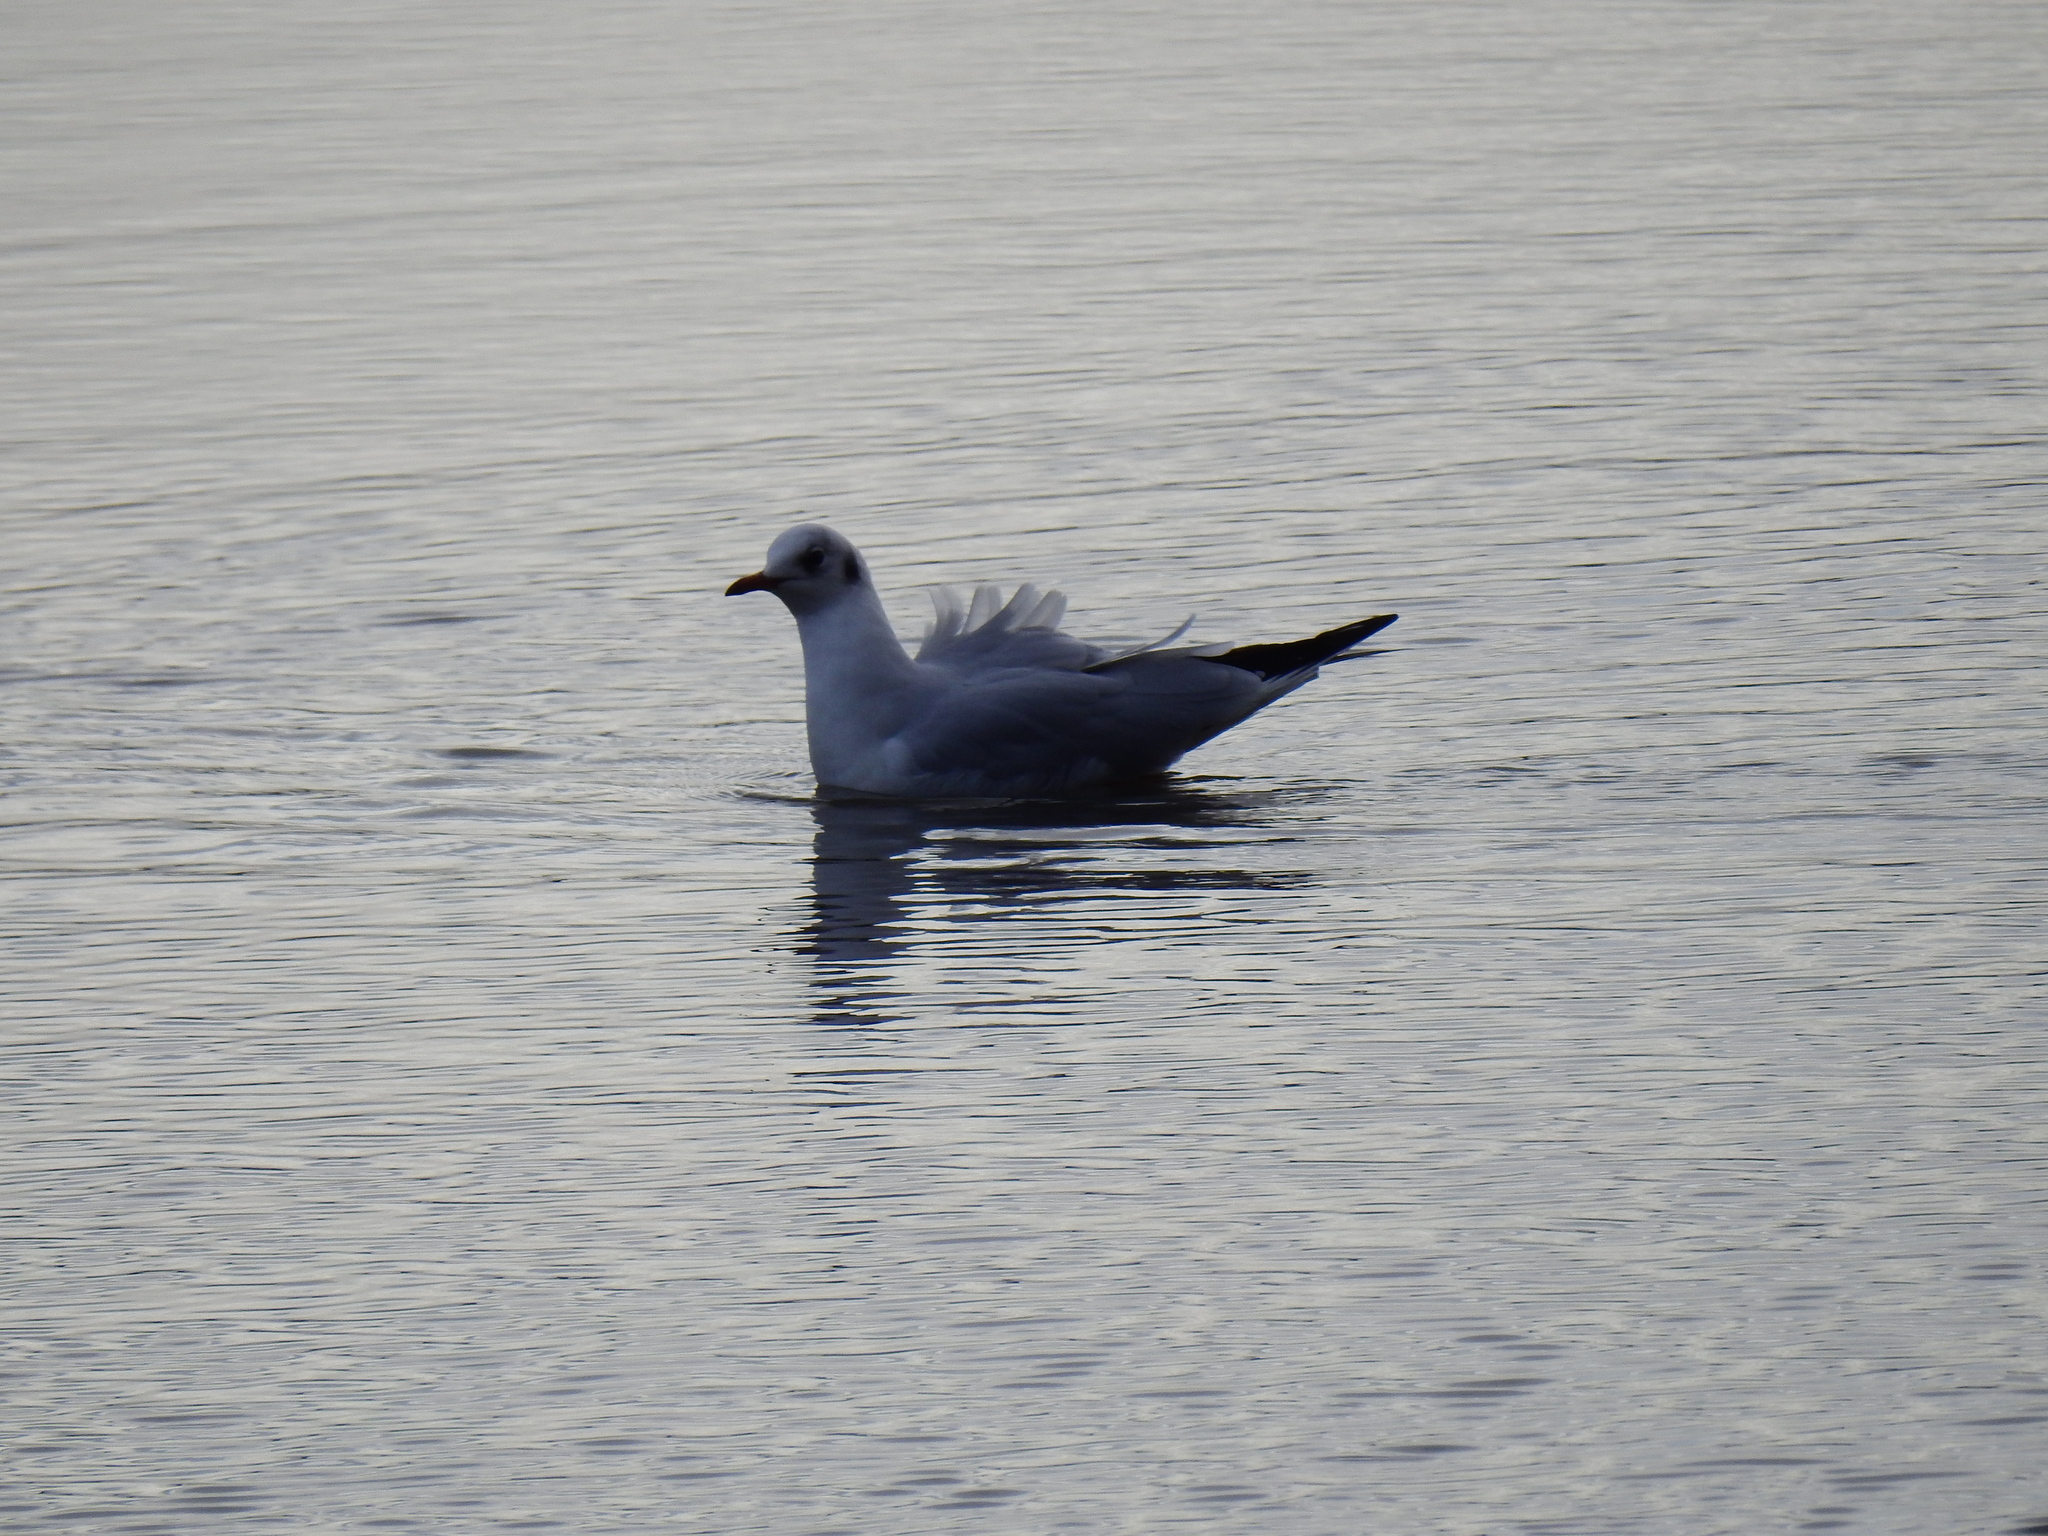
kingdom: Animalia
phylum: Chordata
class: Aves
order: Charadriiformes
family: Laridae
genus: Chroicocephalus
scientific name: Chroicocephalus ridibundus
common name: Black-headed gull
